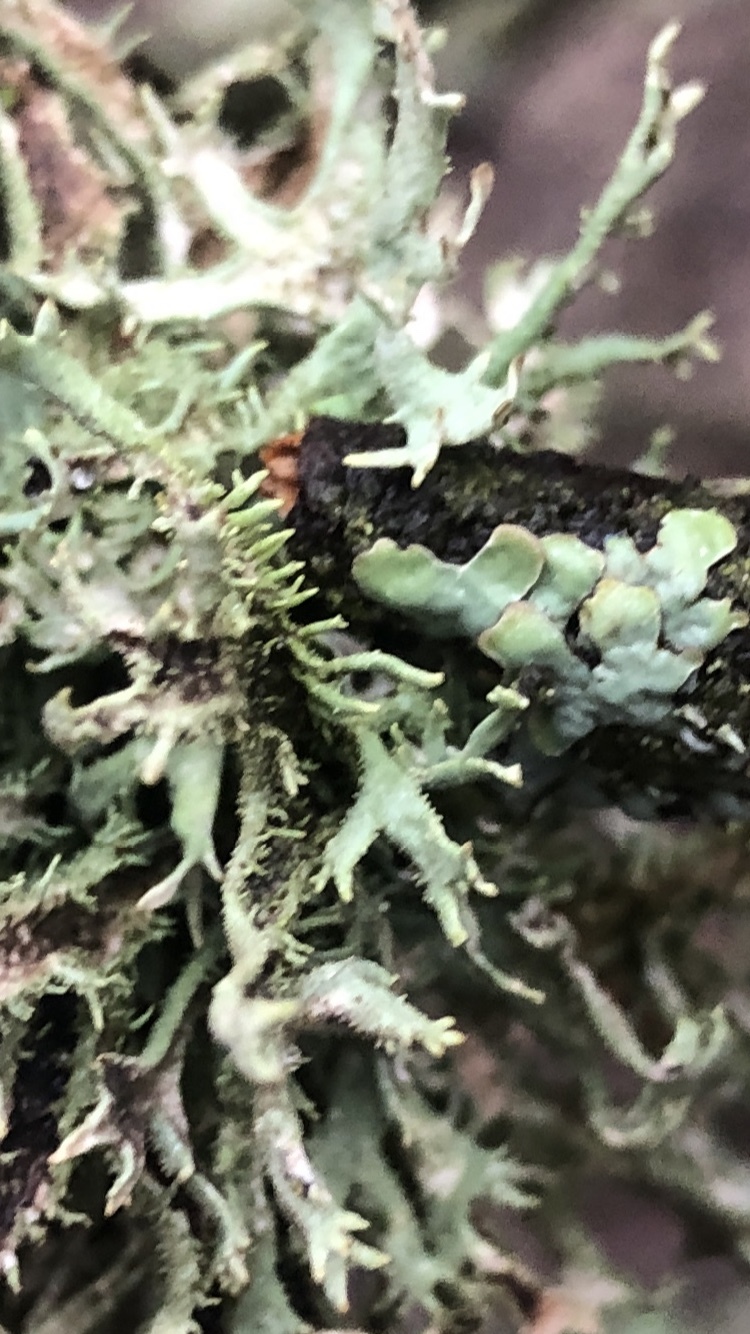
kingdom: Fungi
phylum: Ascomycota
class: Lecanoromycetes
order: Lecanorales
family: Parmeliaceae
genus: Pseudevernia
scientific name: Pseudevernia furfuracea
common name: Tree moss
